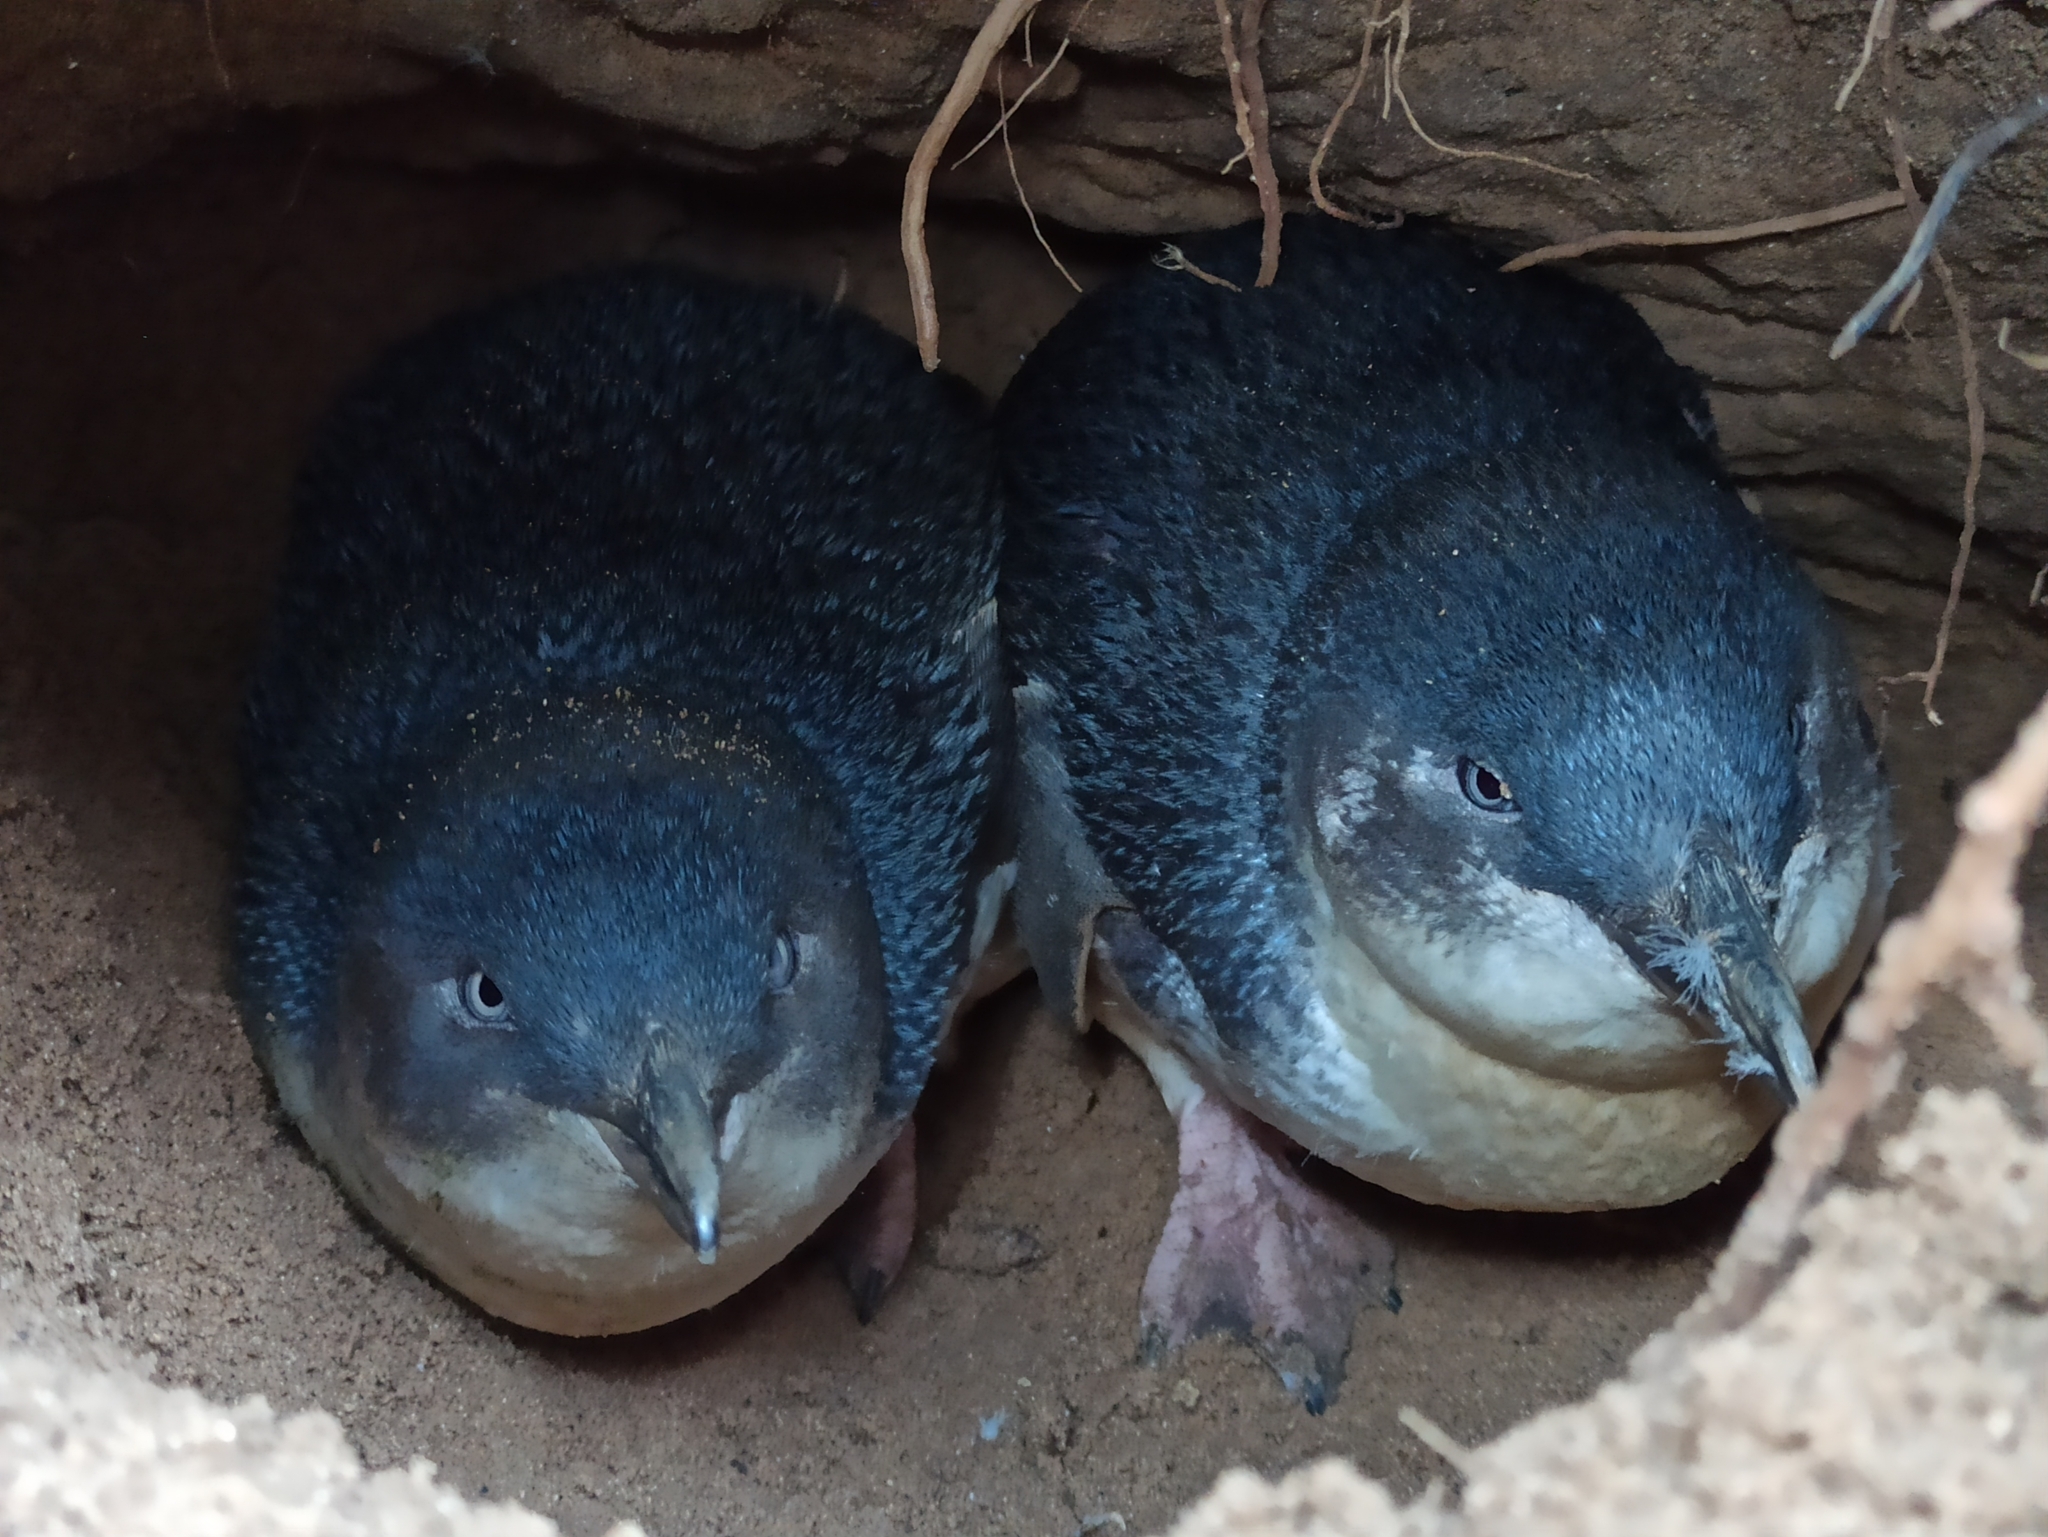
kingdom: Animalia
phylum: Chordata
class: Aves
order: Sphenisciformes
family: Spheniscidae
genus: Eudyptula
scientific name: Eudyptula minor
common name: Little penguin
